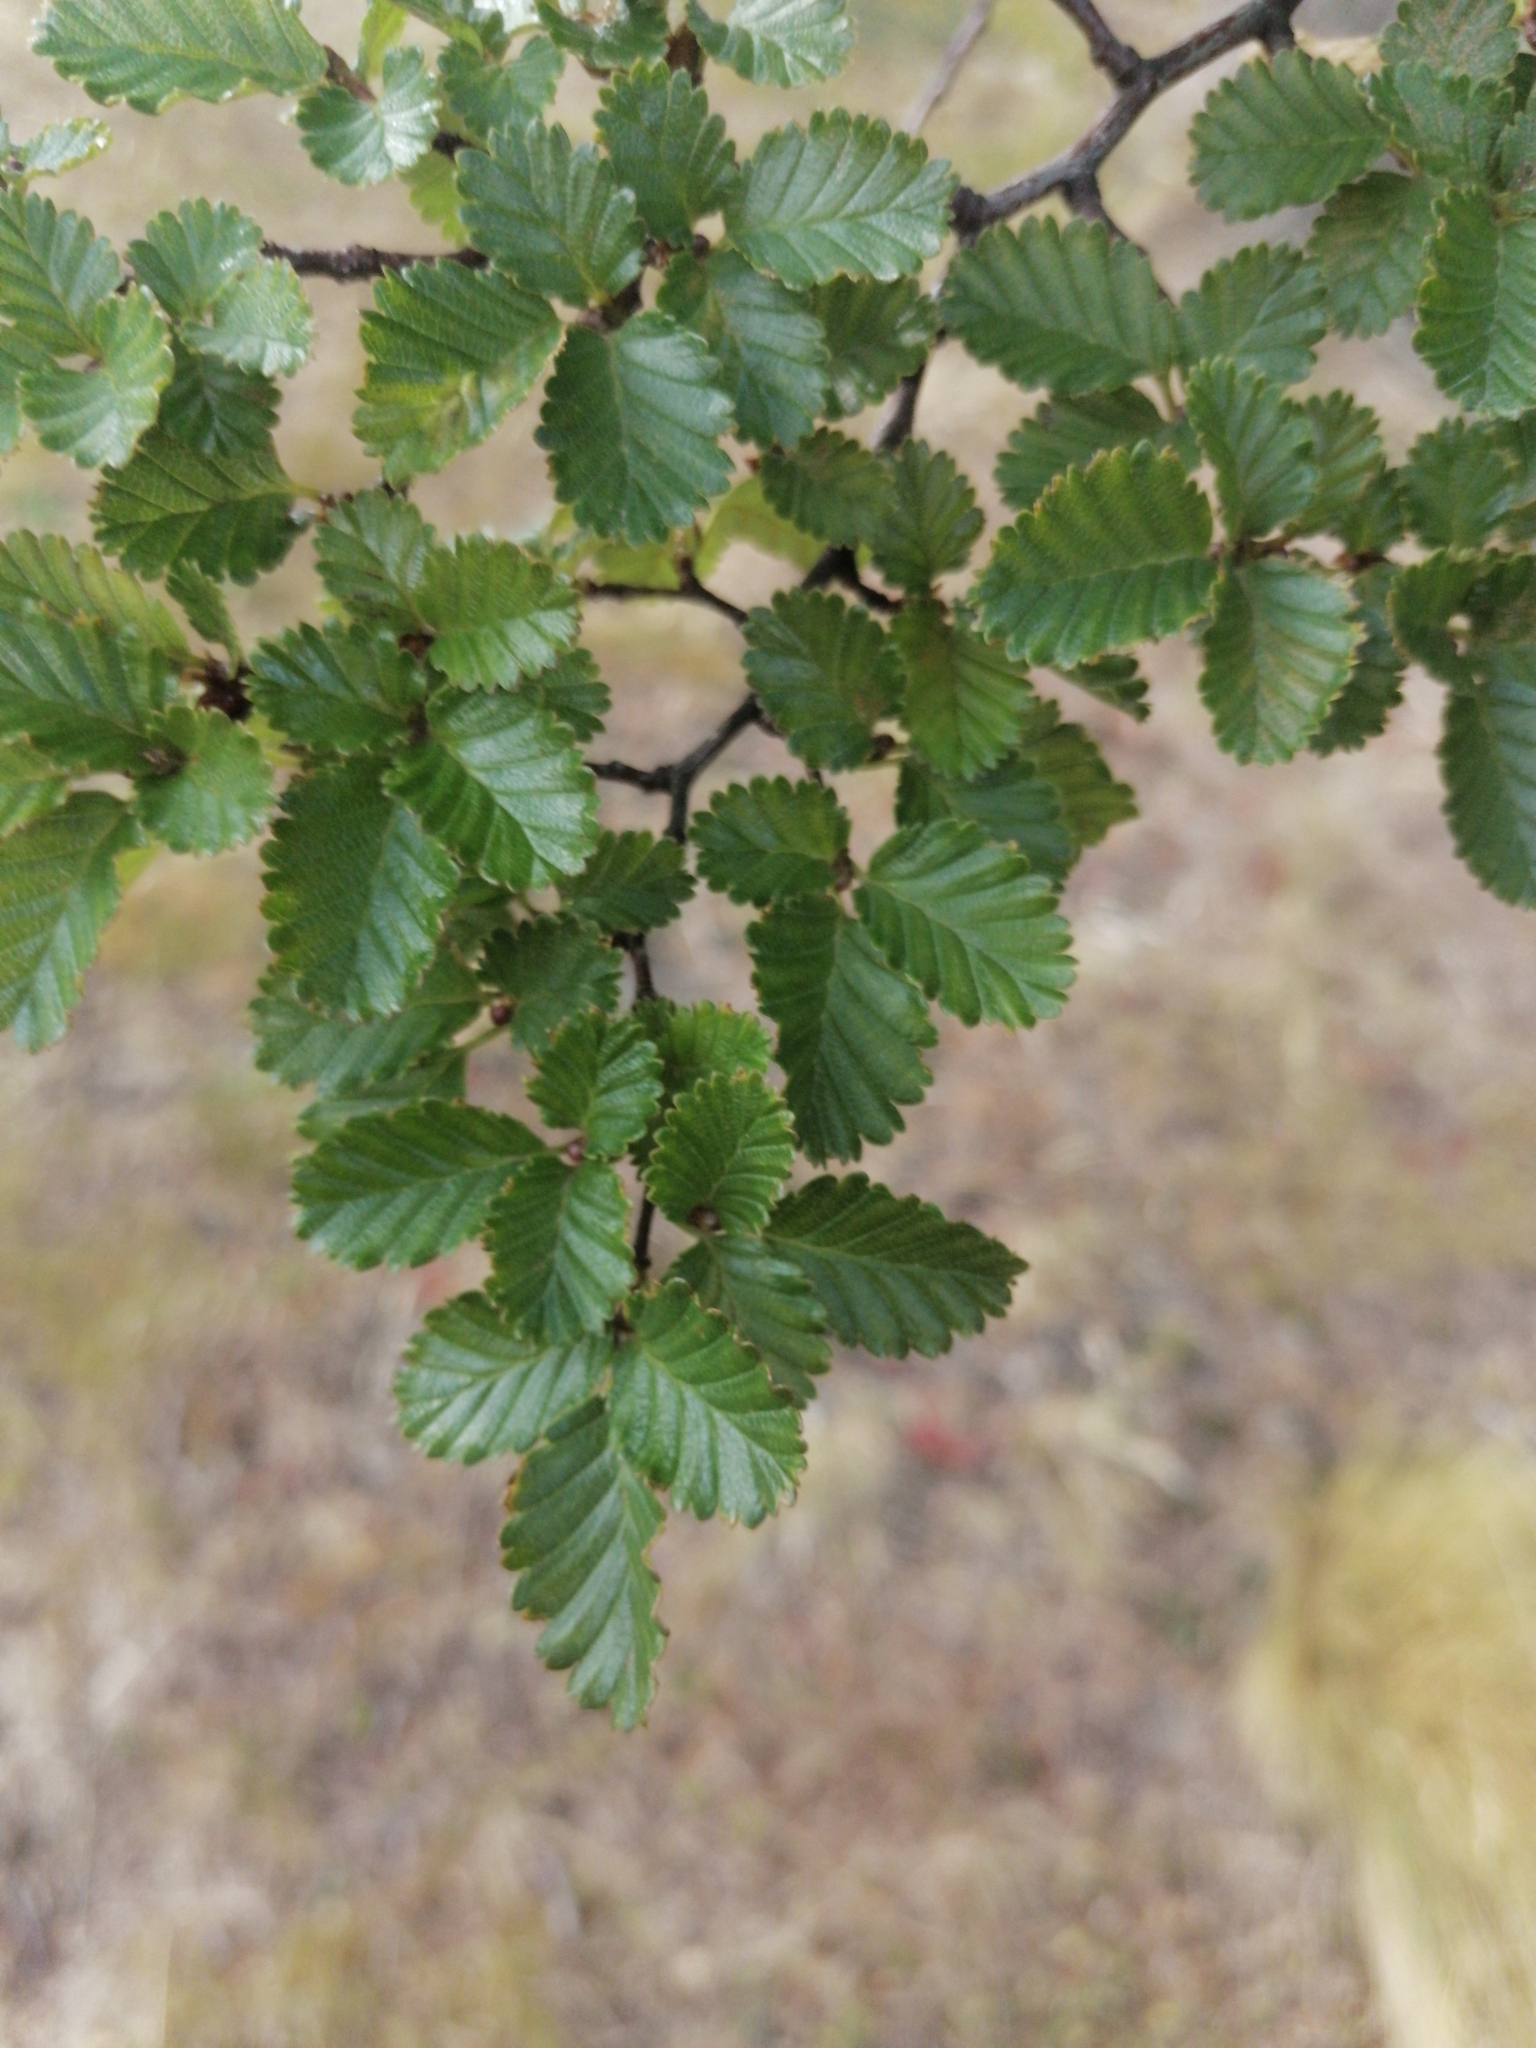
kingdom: Plantae
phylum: Tracheophyta
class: Magnoliopsida
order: Fagales
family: Nothofagaceae
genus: Nothofagus
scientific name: Nothofagus pumilio
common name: Lenga beech
